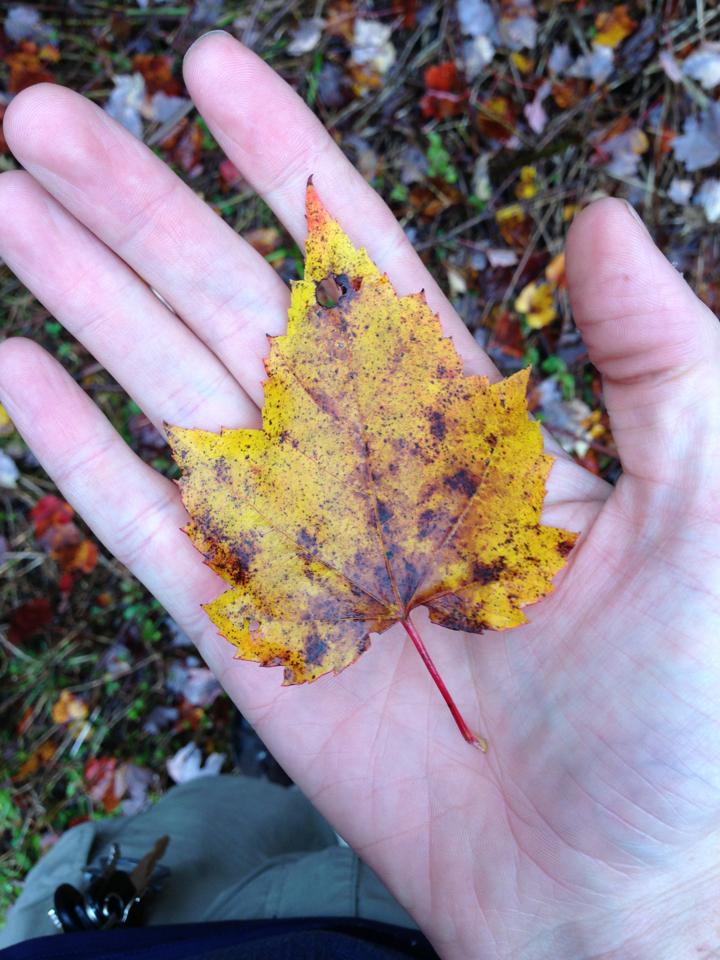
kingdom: Plantae
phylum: Tracheophyta
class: Magnoliopsida
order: Sapindales
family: Sapindaceae
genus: Acer
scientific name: Acer rubrum
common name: Red maple
